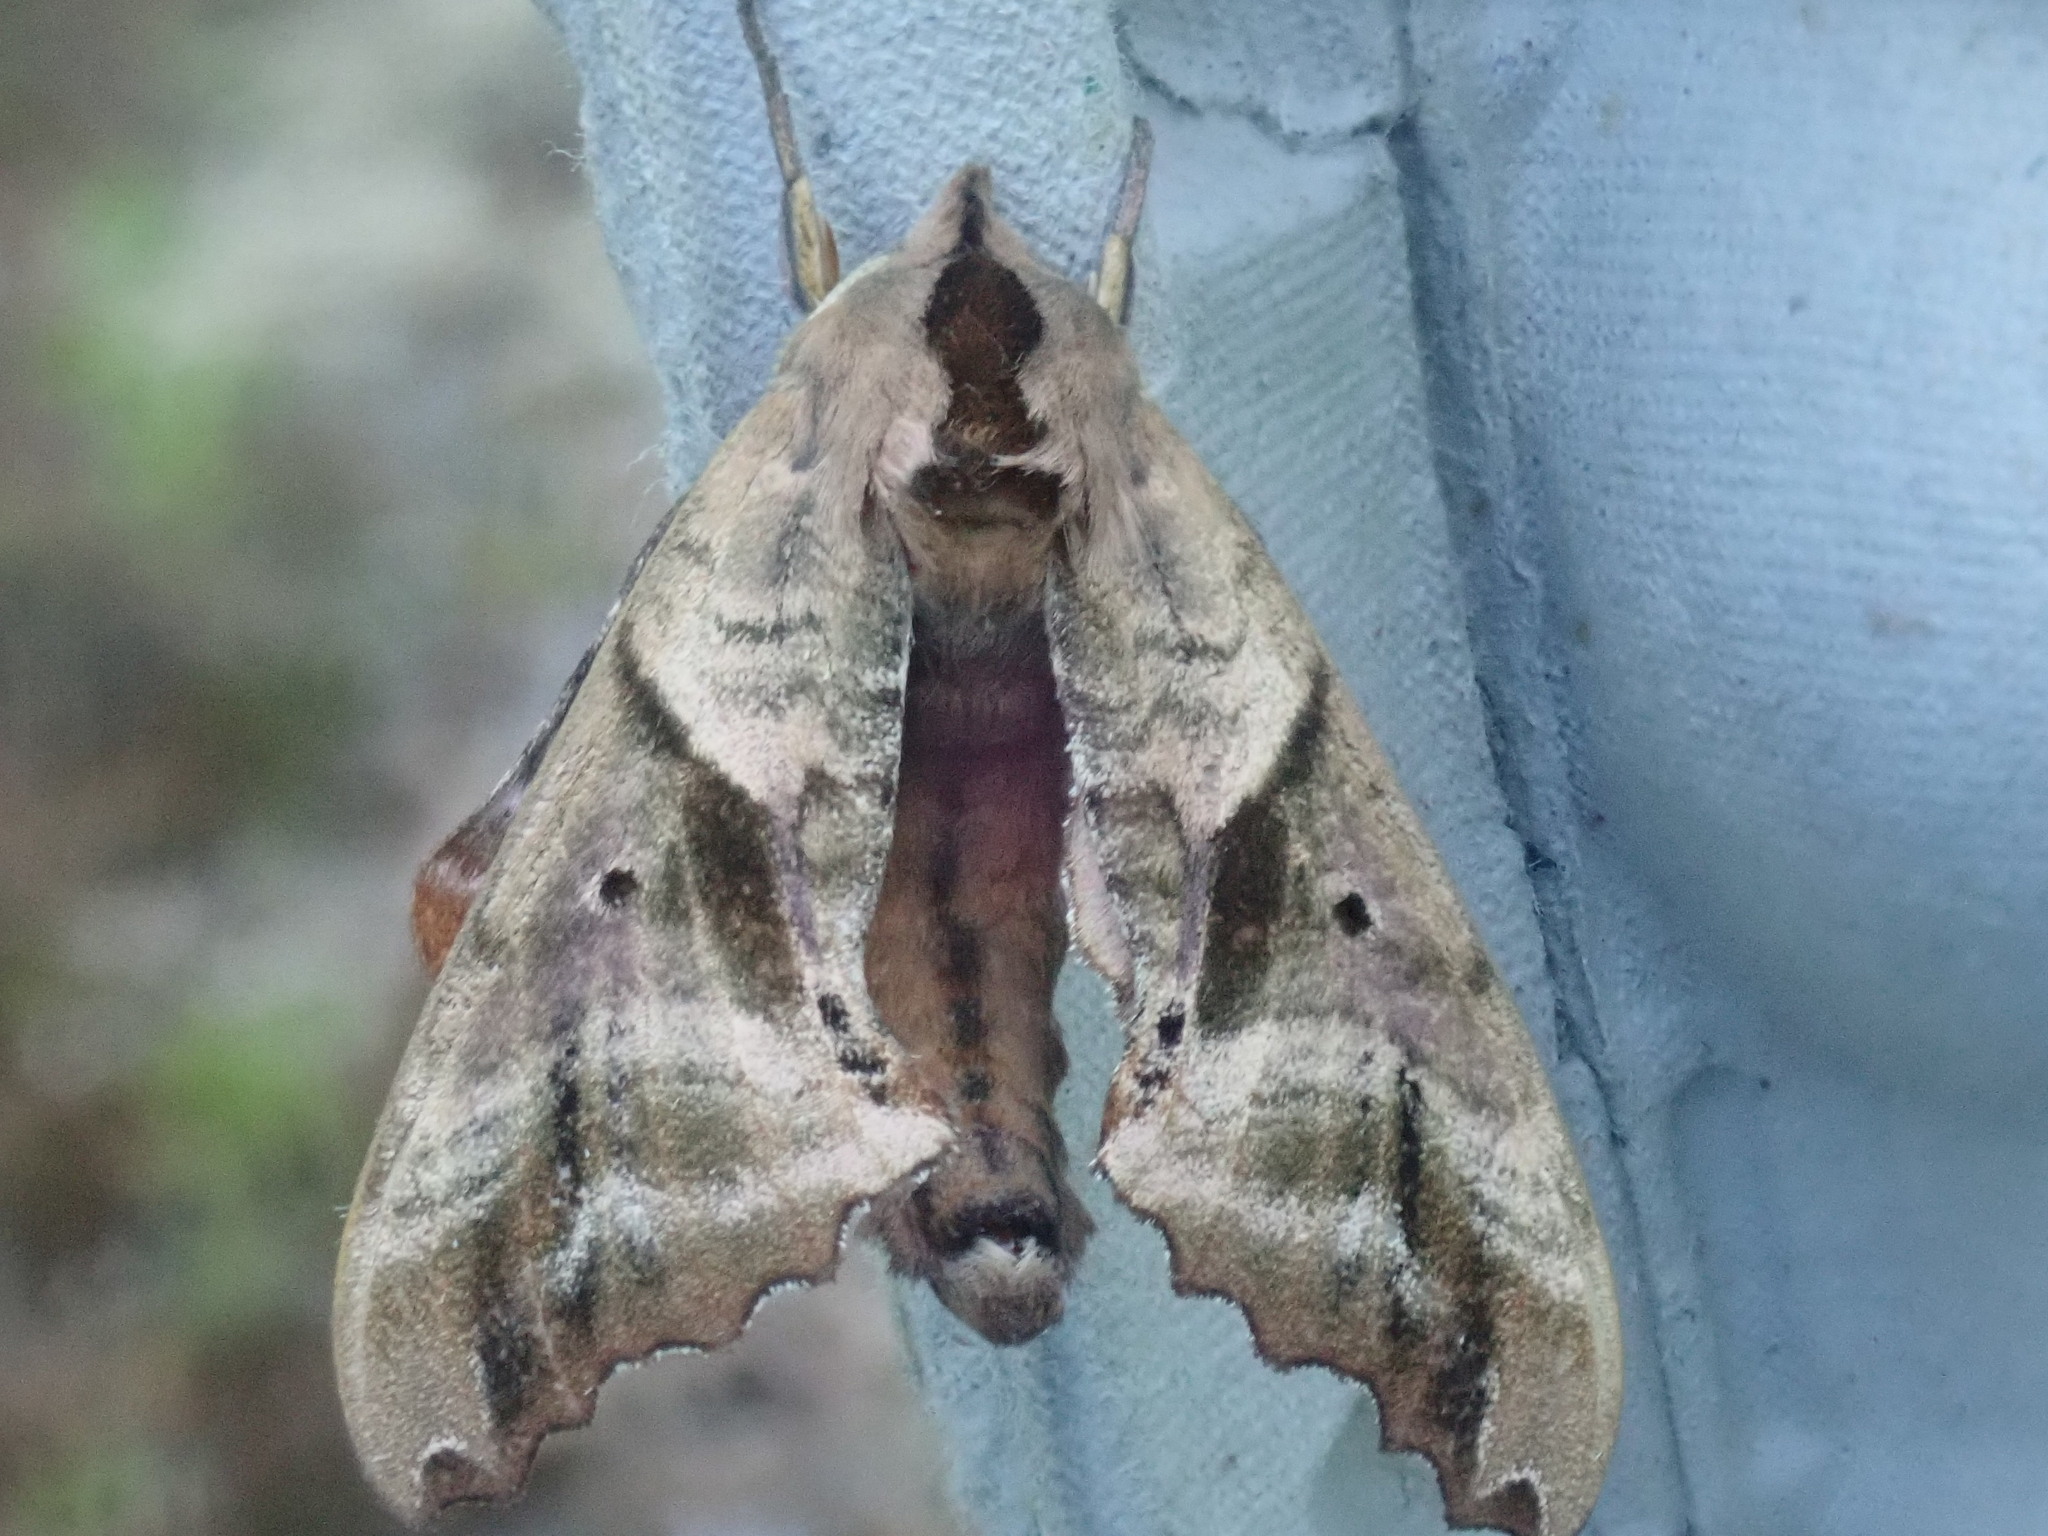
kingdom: Animalia
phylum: Arthropoda
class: Insecta
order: Lepidoptera
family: Sphingidae
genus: Paonias
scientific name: Paonias excaecata
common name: Blind-eyed sphinx
